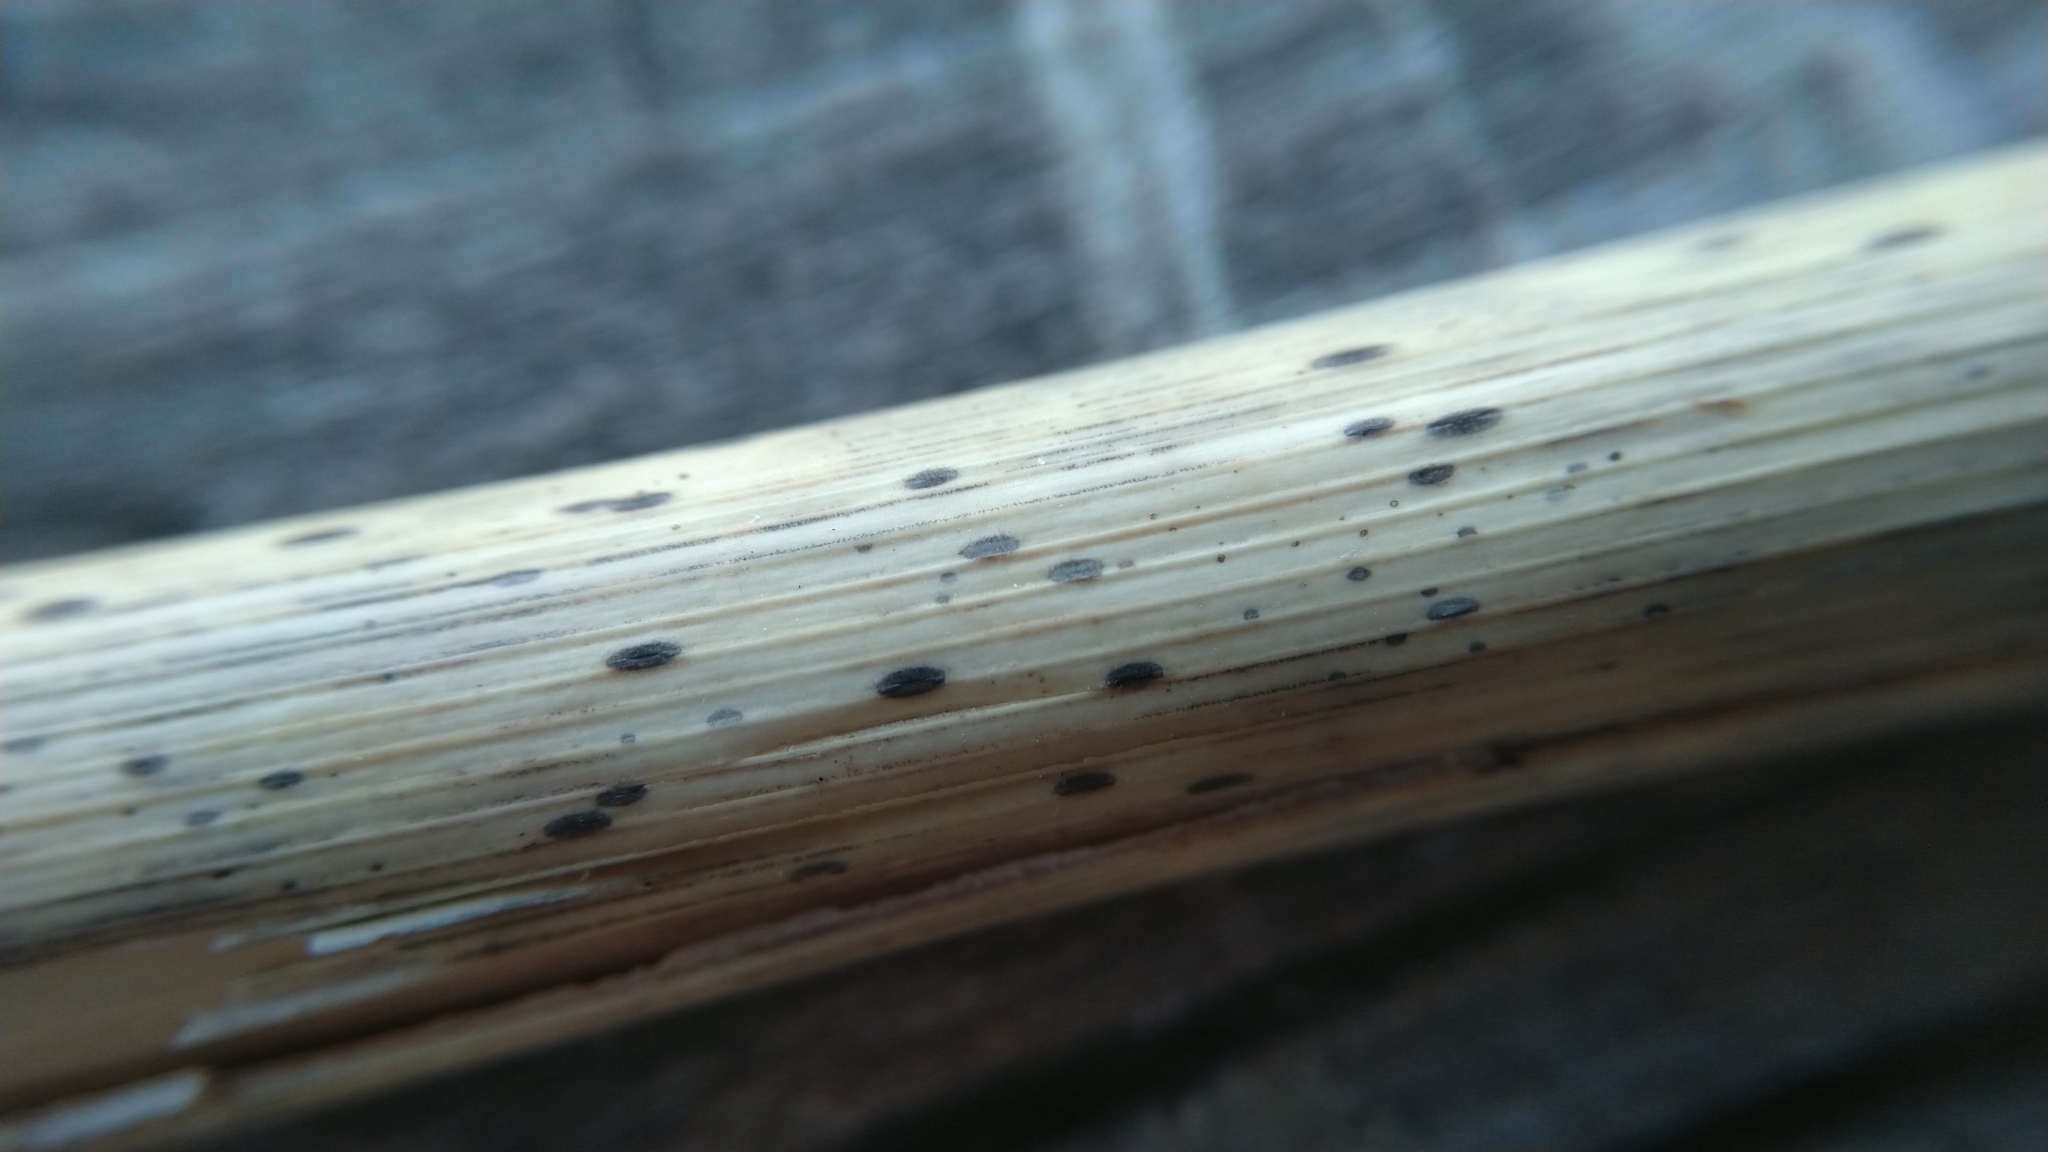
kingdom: Fungi
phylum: Ascomycota
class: Leotiomycetes
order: Rhytismatales
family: Rhytismataceae
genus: Lophodermium
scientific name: Lophodermium arundinaceum
